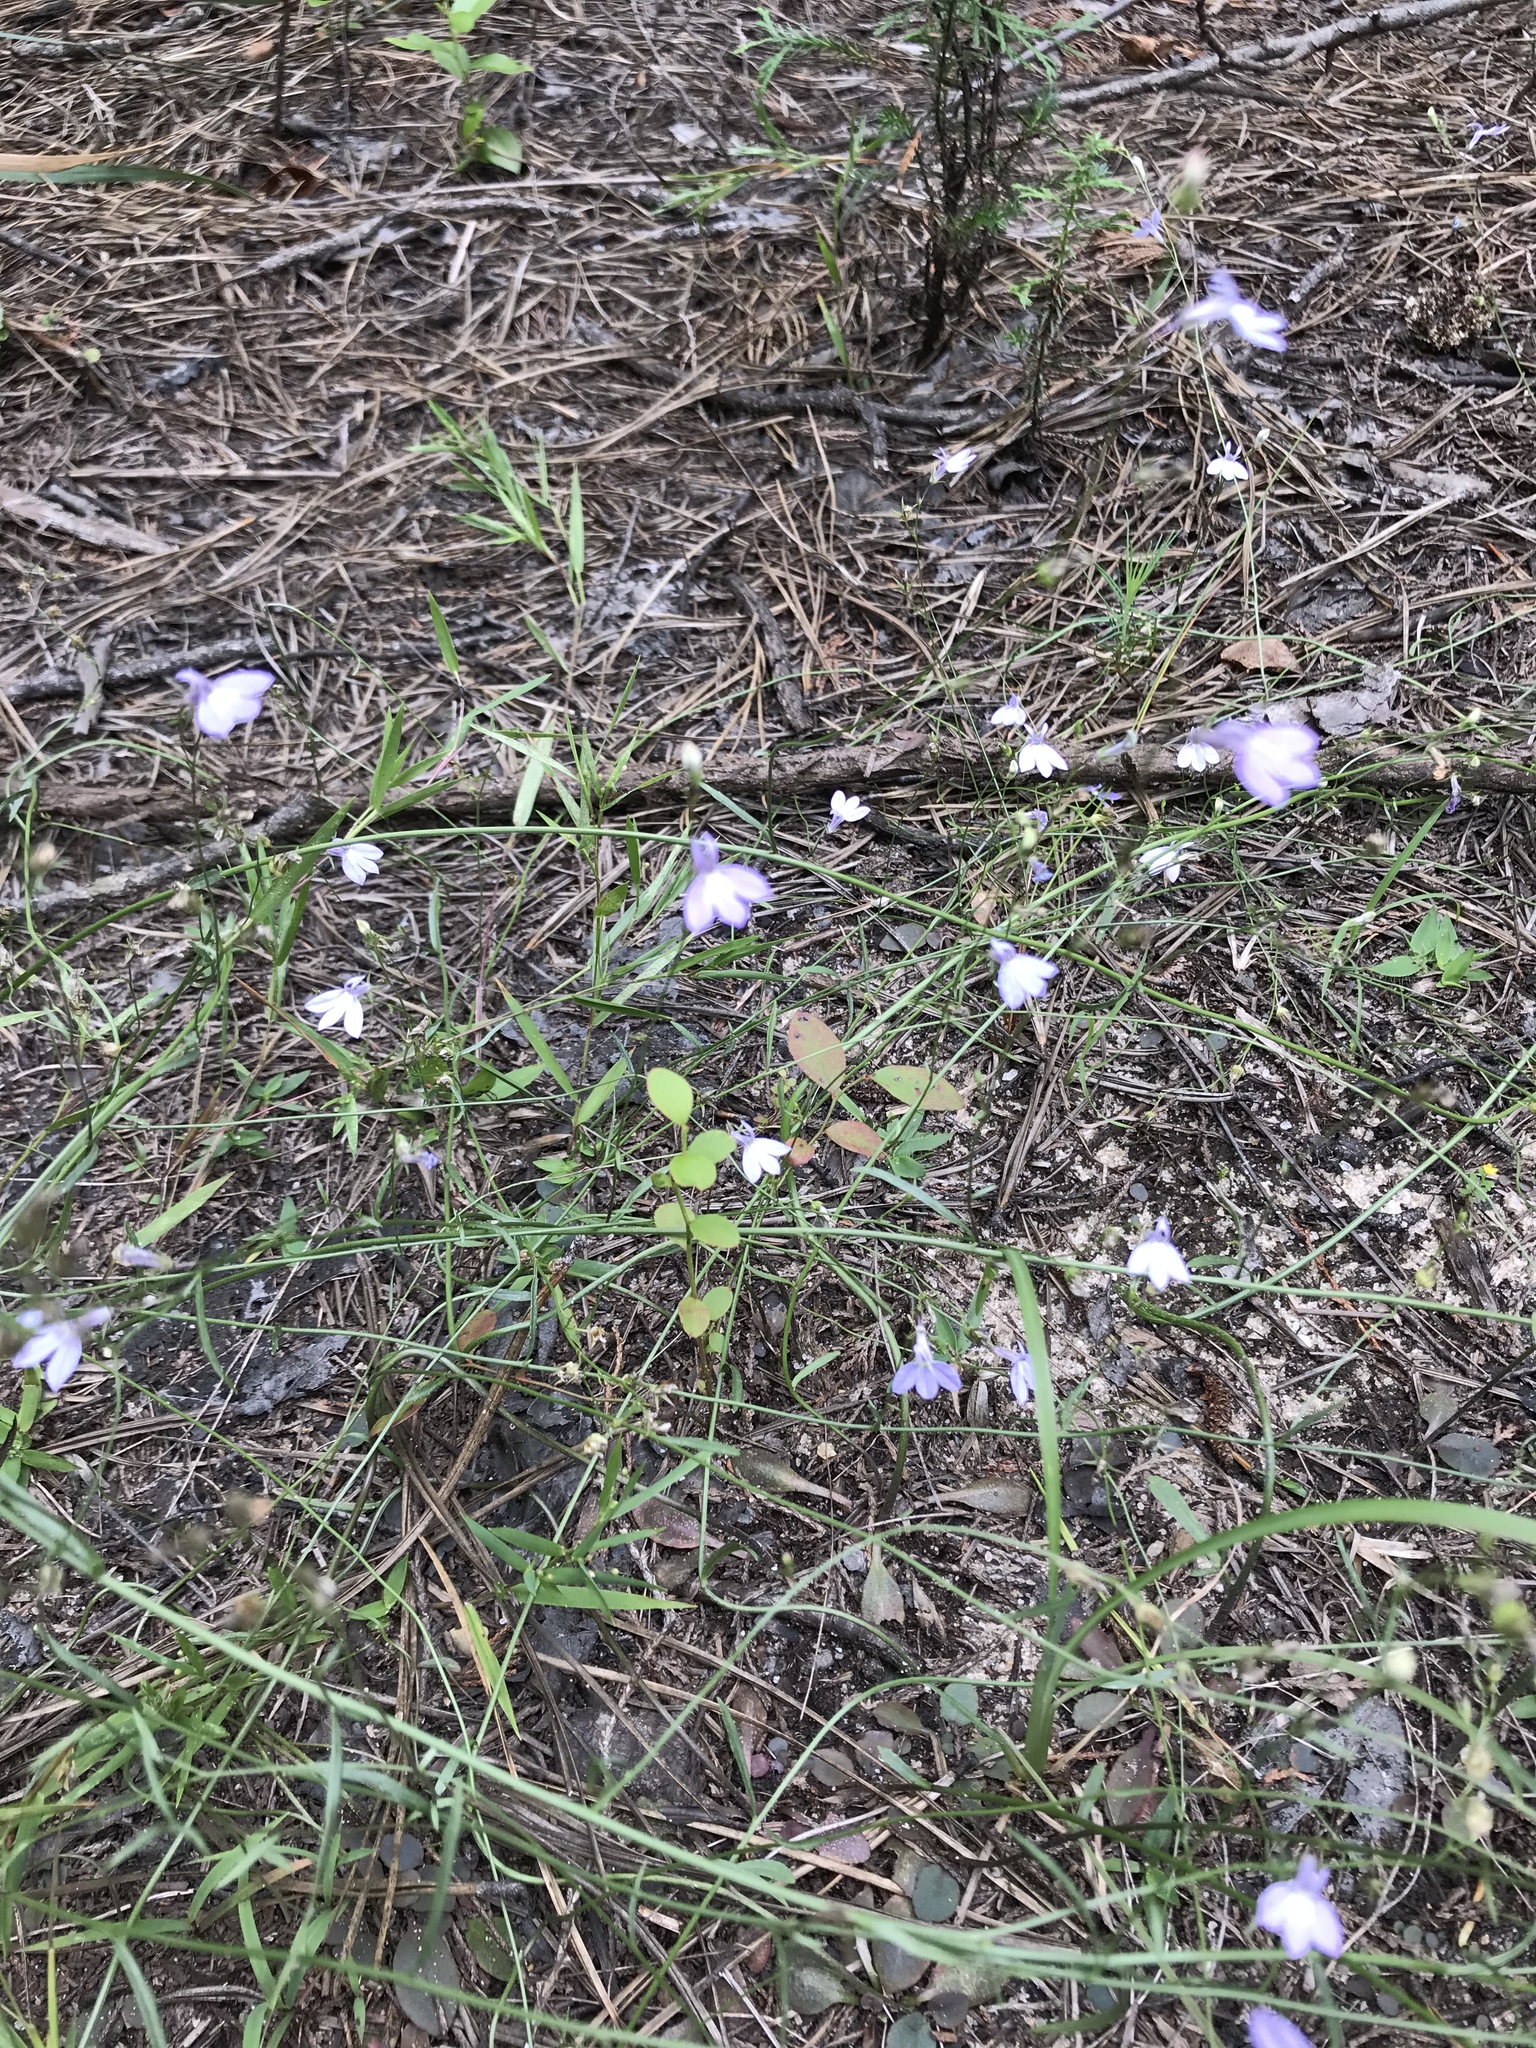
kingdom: Plantae
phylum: Tracheophyta
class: Magnoliopsida
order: Asterales
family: Campanulaceae
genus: Lobelia
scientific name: Lobelia nuttallii
